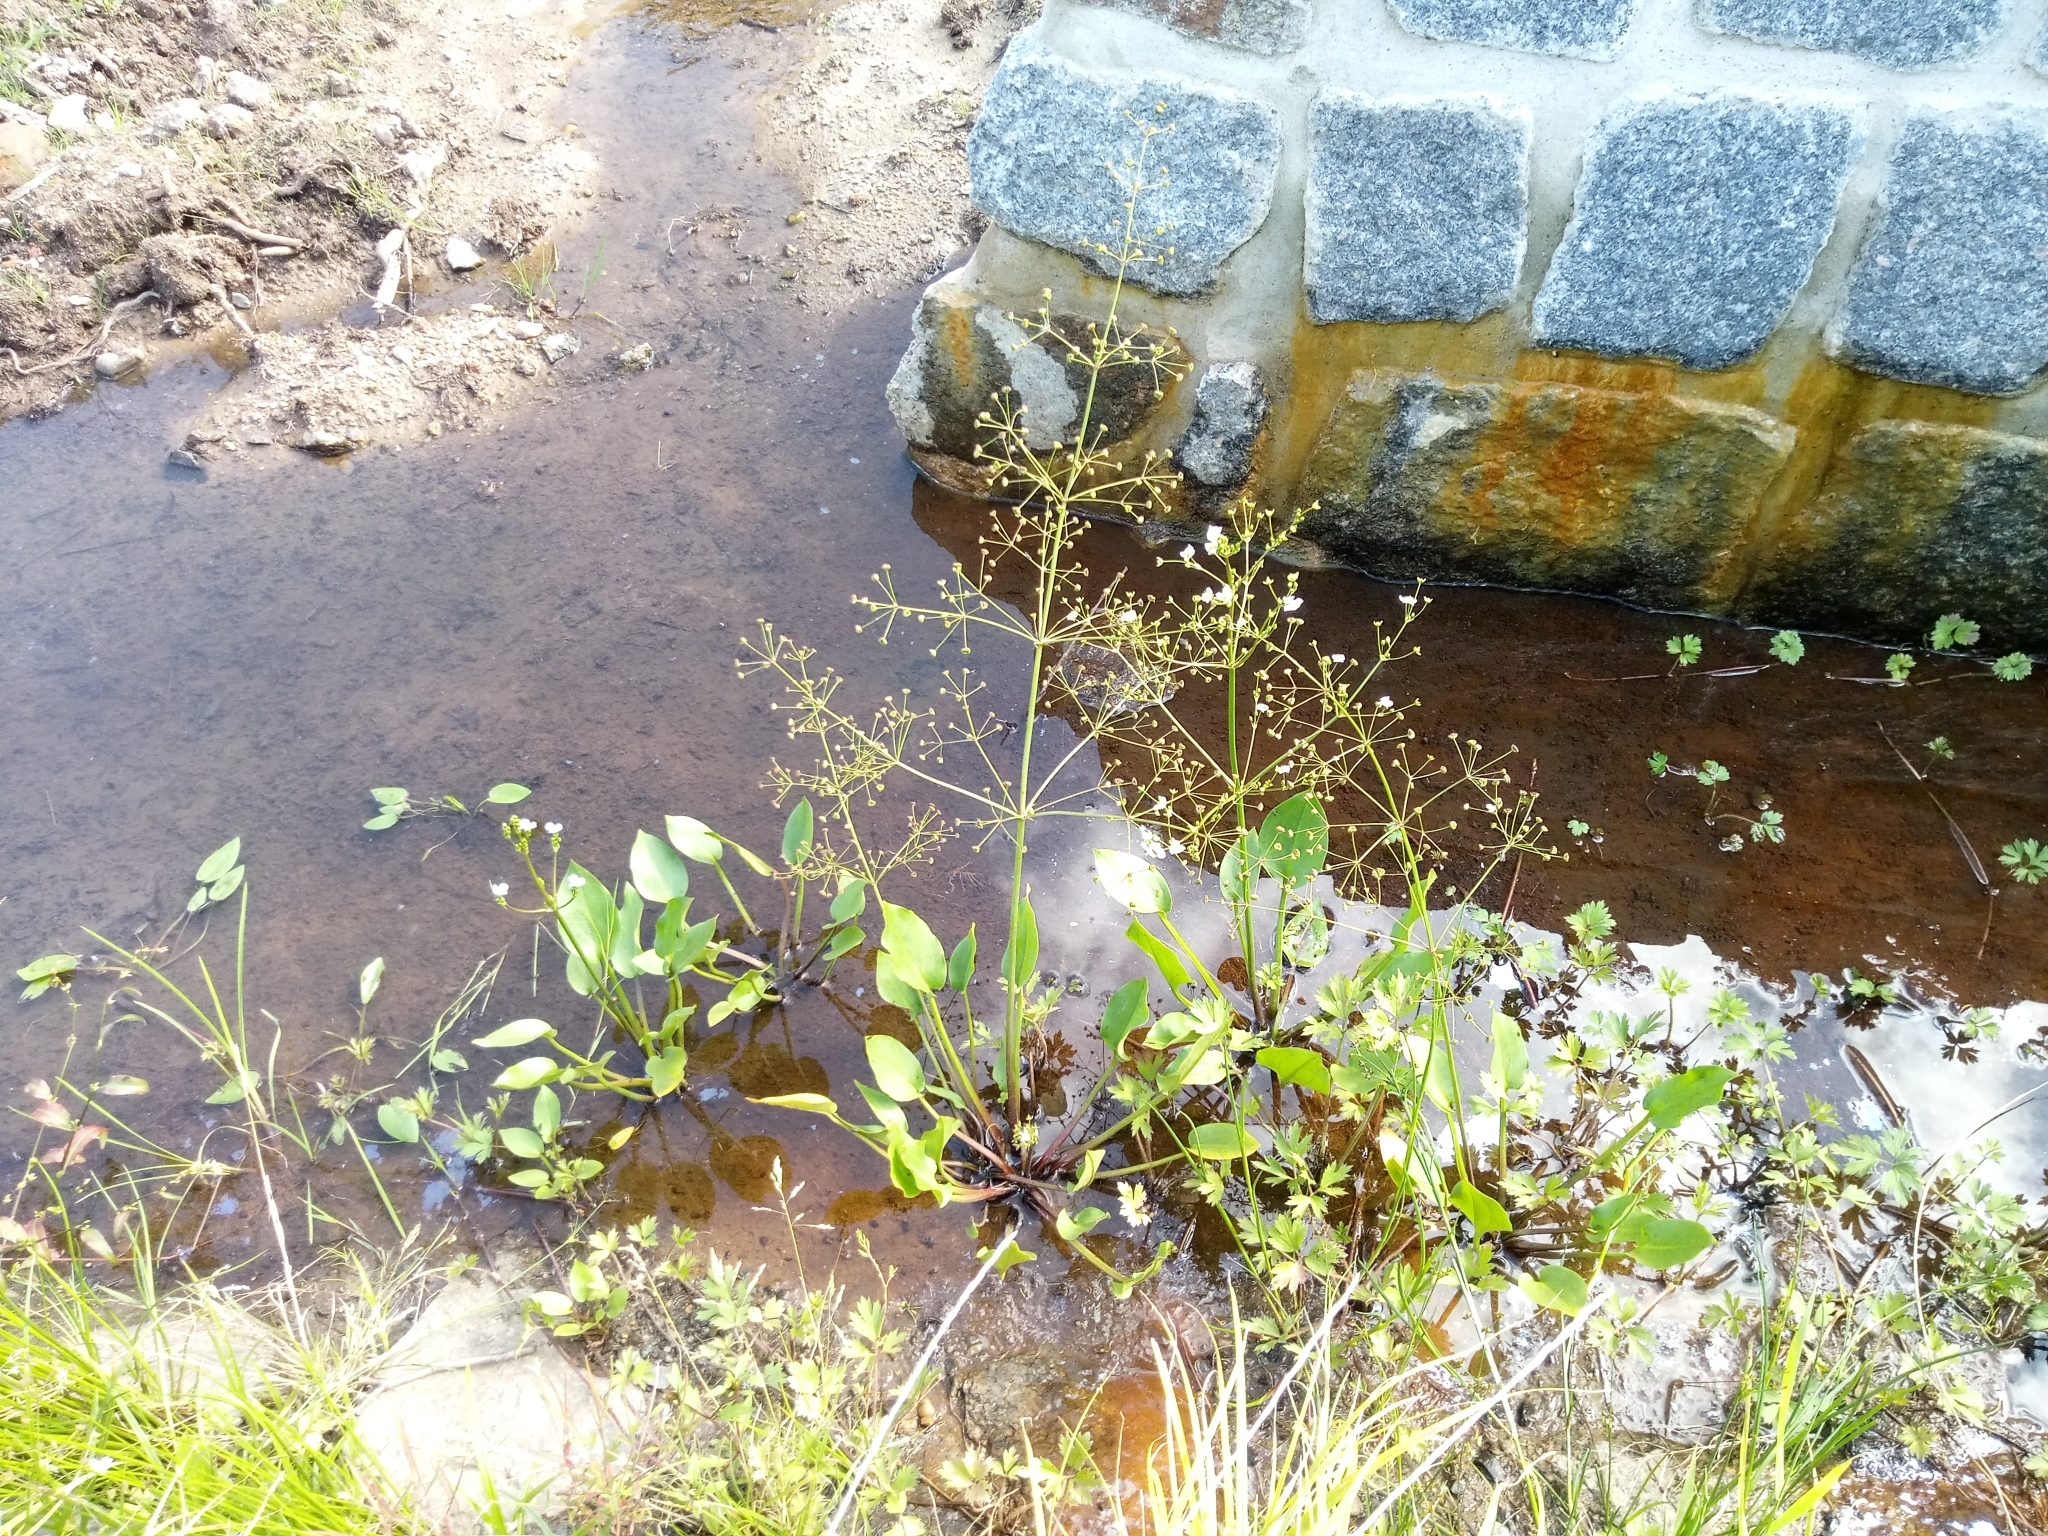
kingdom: Plantae
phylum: Tracheophyta
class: Liliopsida
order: Alismatales
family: Alismataceae
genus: Alisma
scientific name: Alisma plantago-aquatica
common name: Water-plantain
